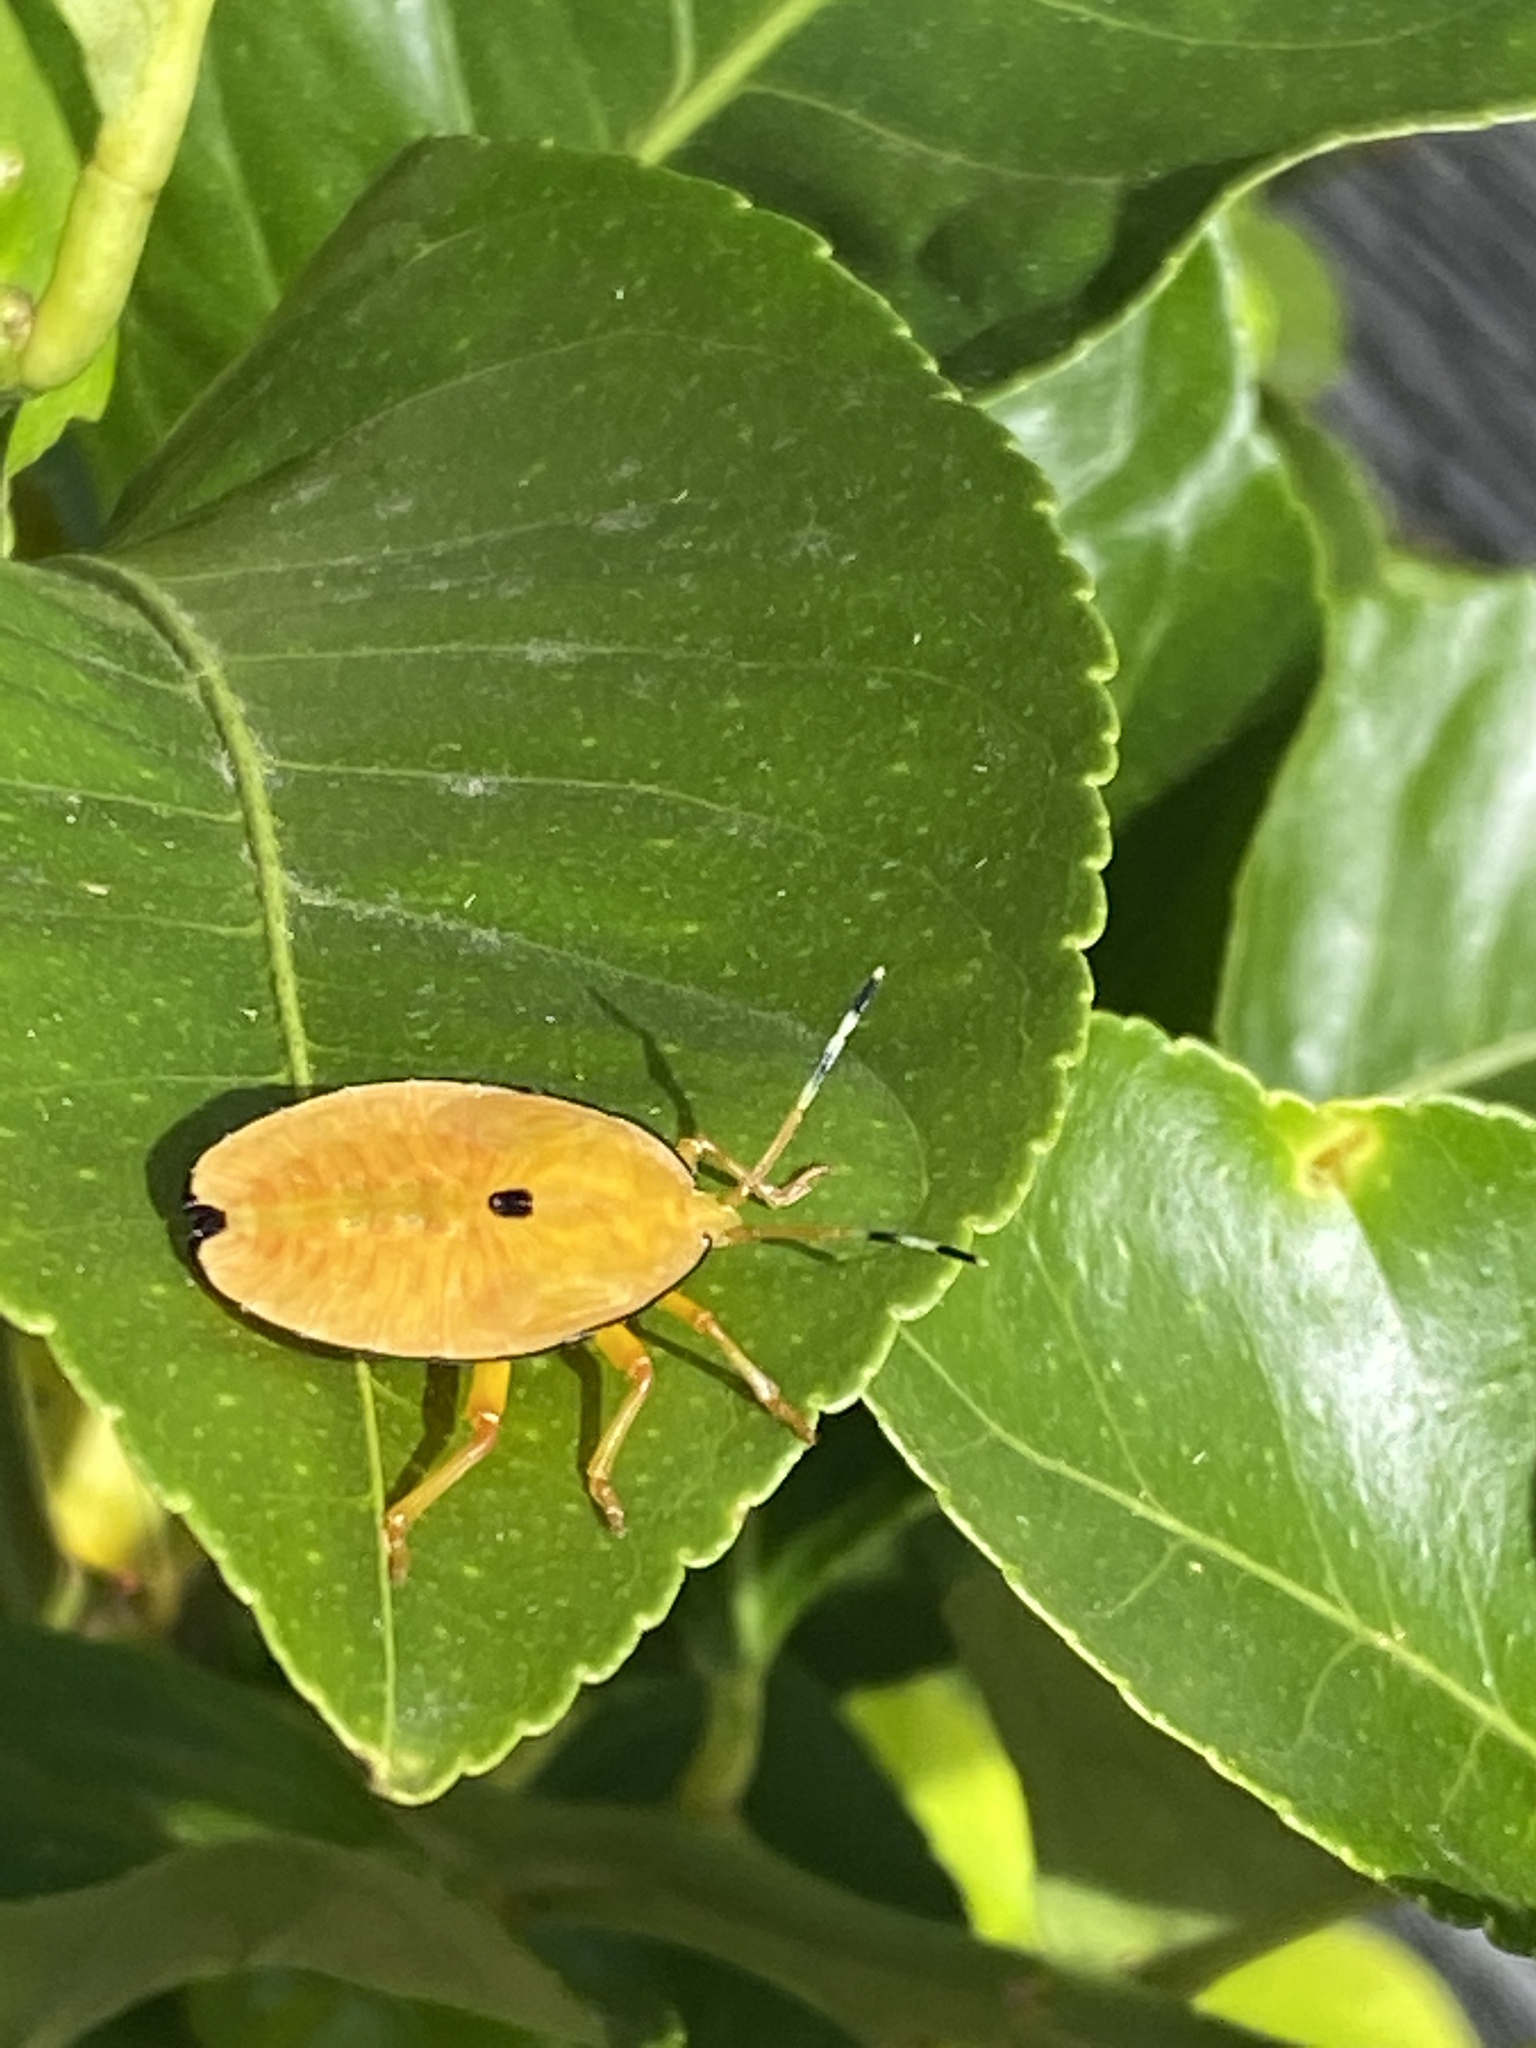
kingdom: Animalia
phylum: Arthropoda
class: Insecta
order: Hemiptera
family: Tessaratomidae
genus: Musgraveia
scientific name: Musgraveia sulciventris
